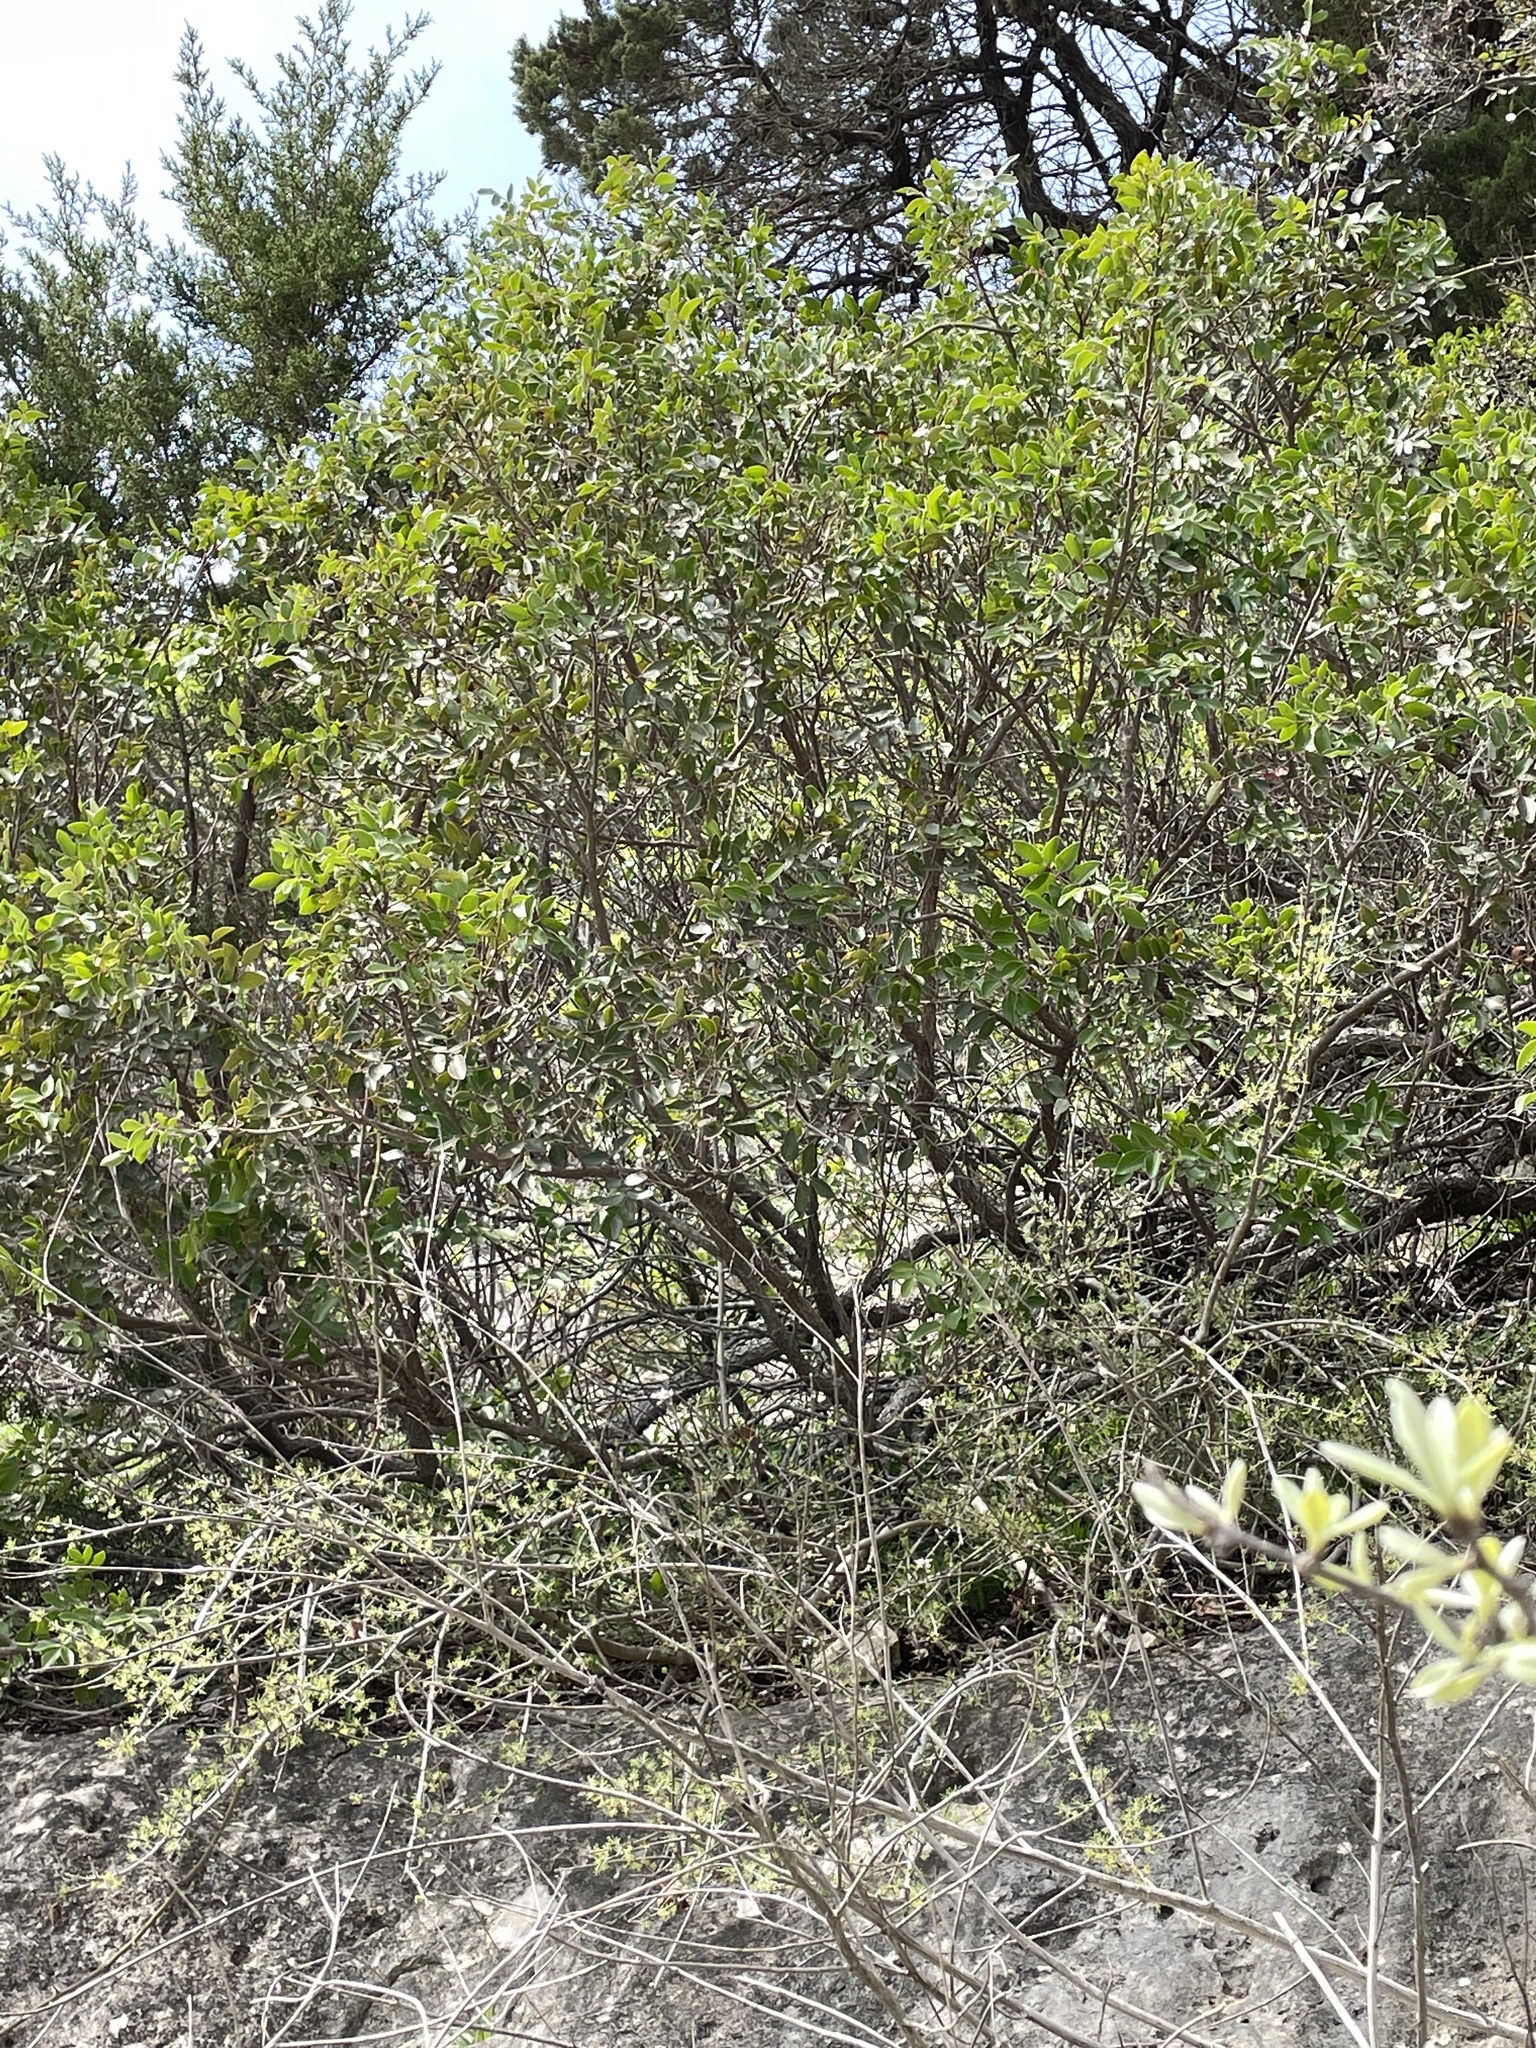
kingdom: Plantae
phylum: Tracheophyta
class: Magnoliopsida
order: Sapindales
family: Anacardiaceae
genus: Rhus
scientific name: Rhus virens
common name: Evergreen sumac
